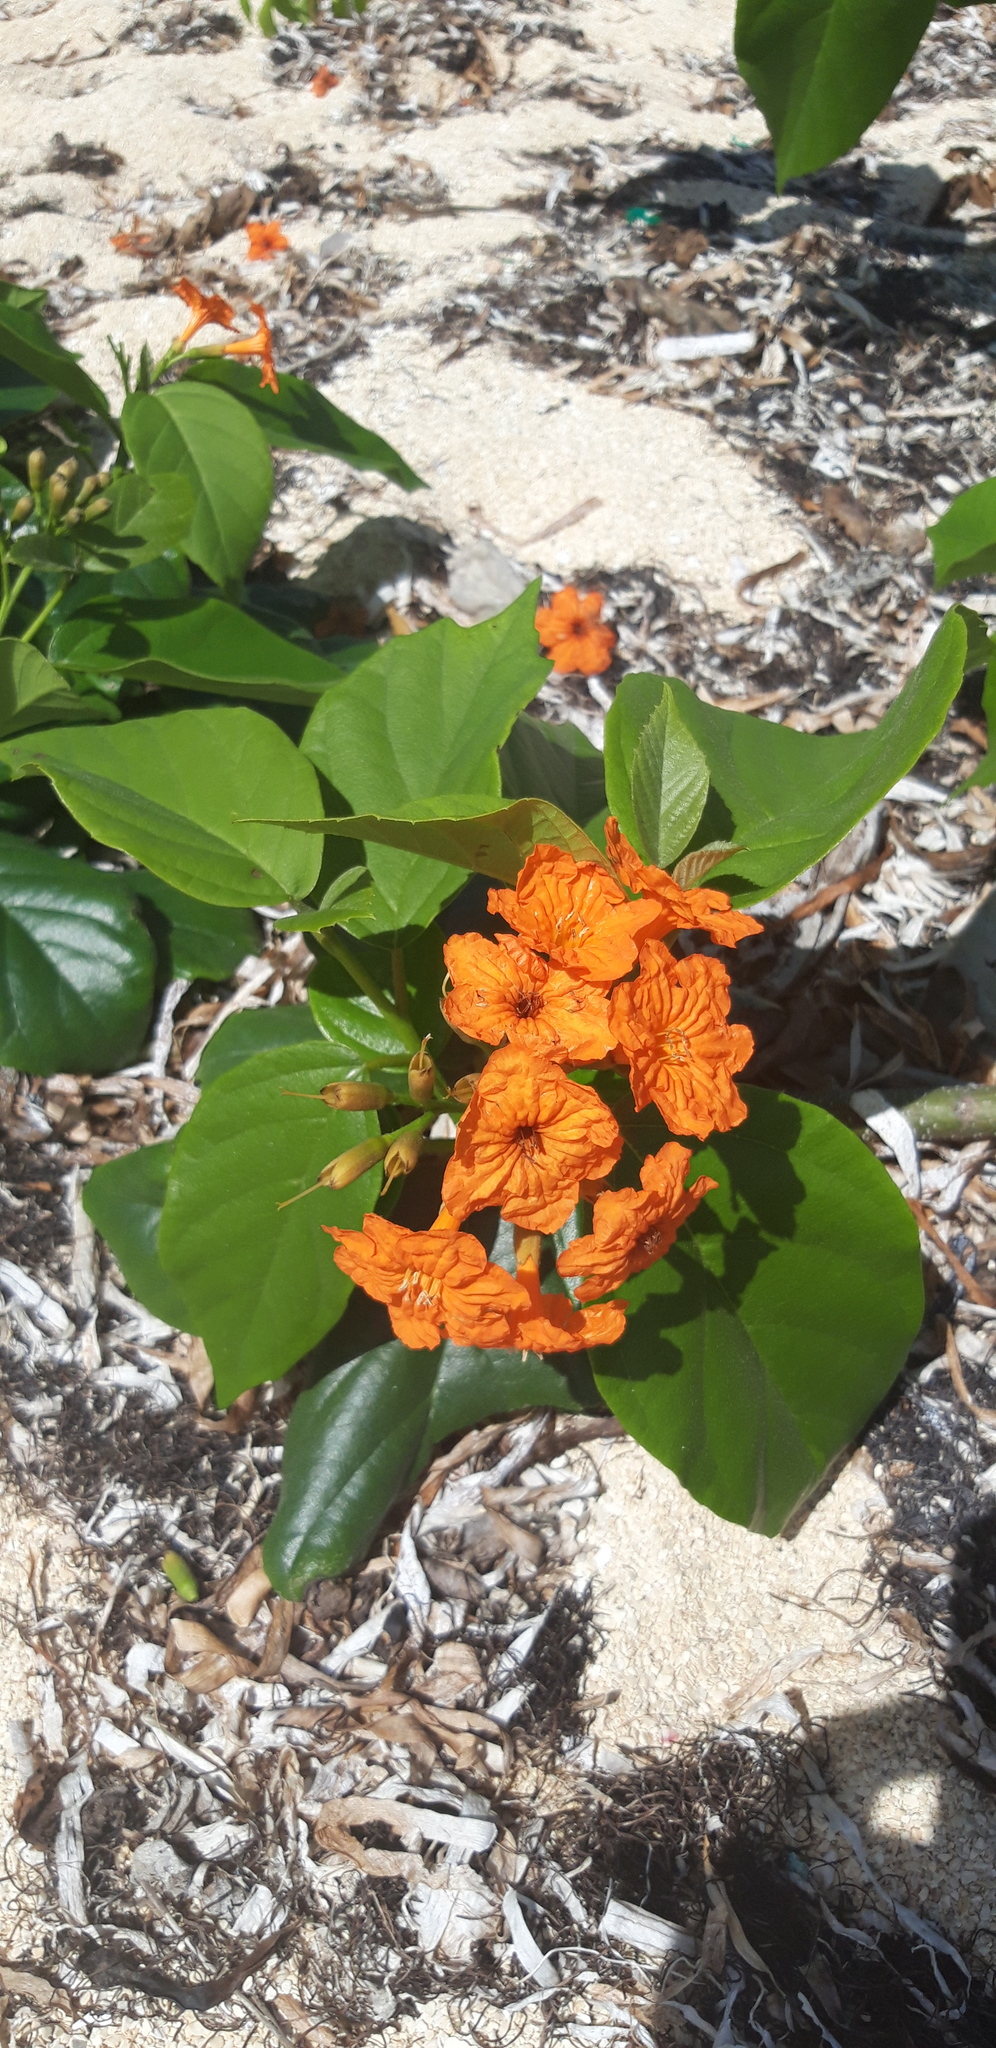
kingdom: Plantae
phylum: Tracheophyta
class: Magnoliopsida
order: Boraginales
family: Cordiaceae
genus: Cordia
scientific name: Cordia sebestena
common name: Largeleaf geigertree
